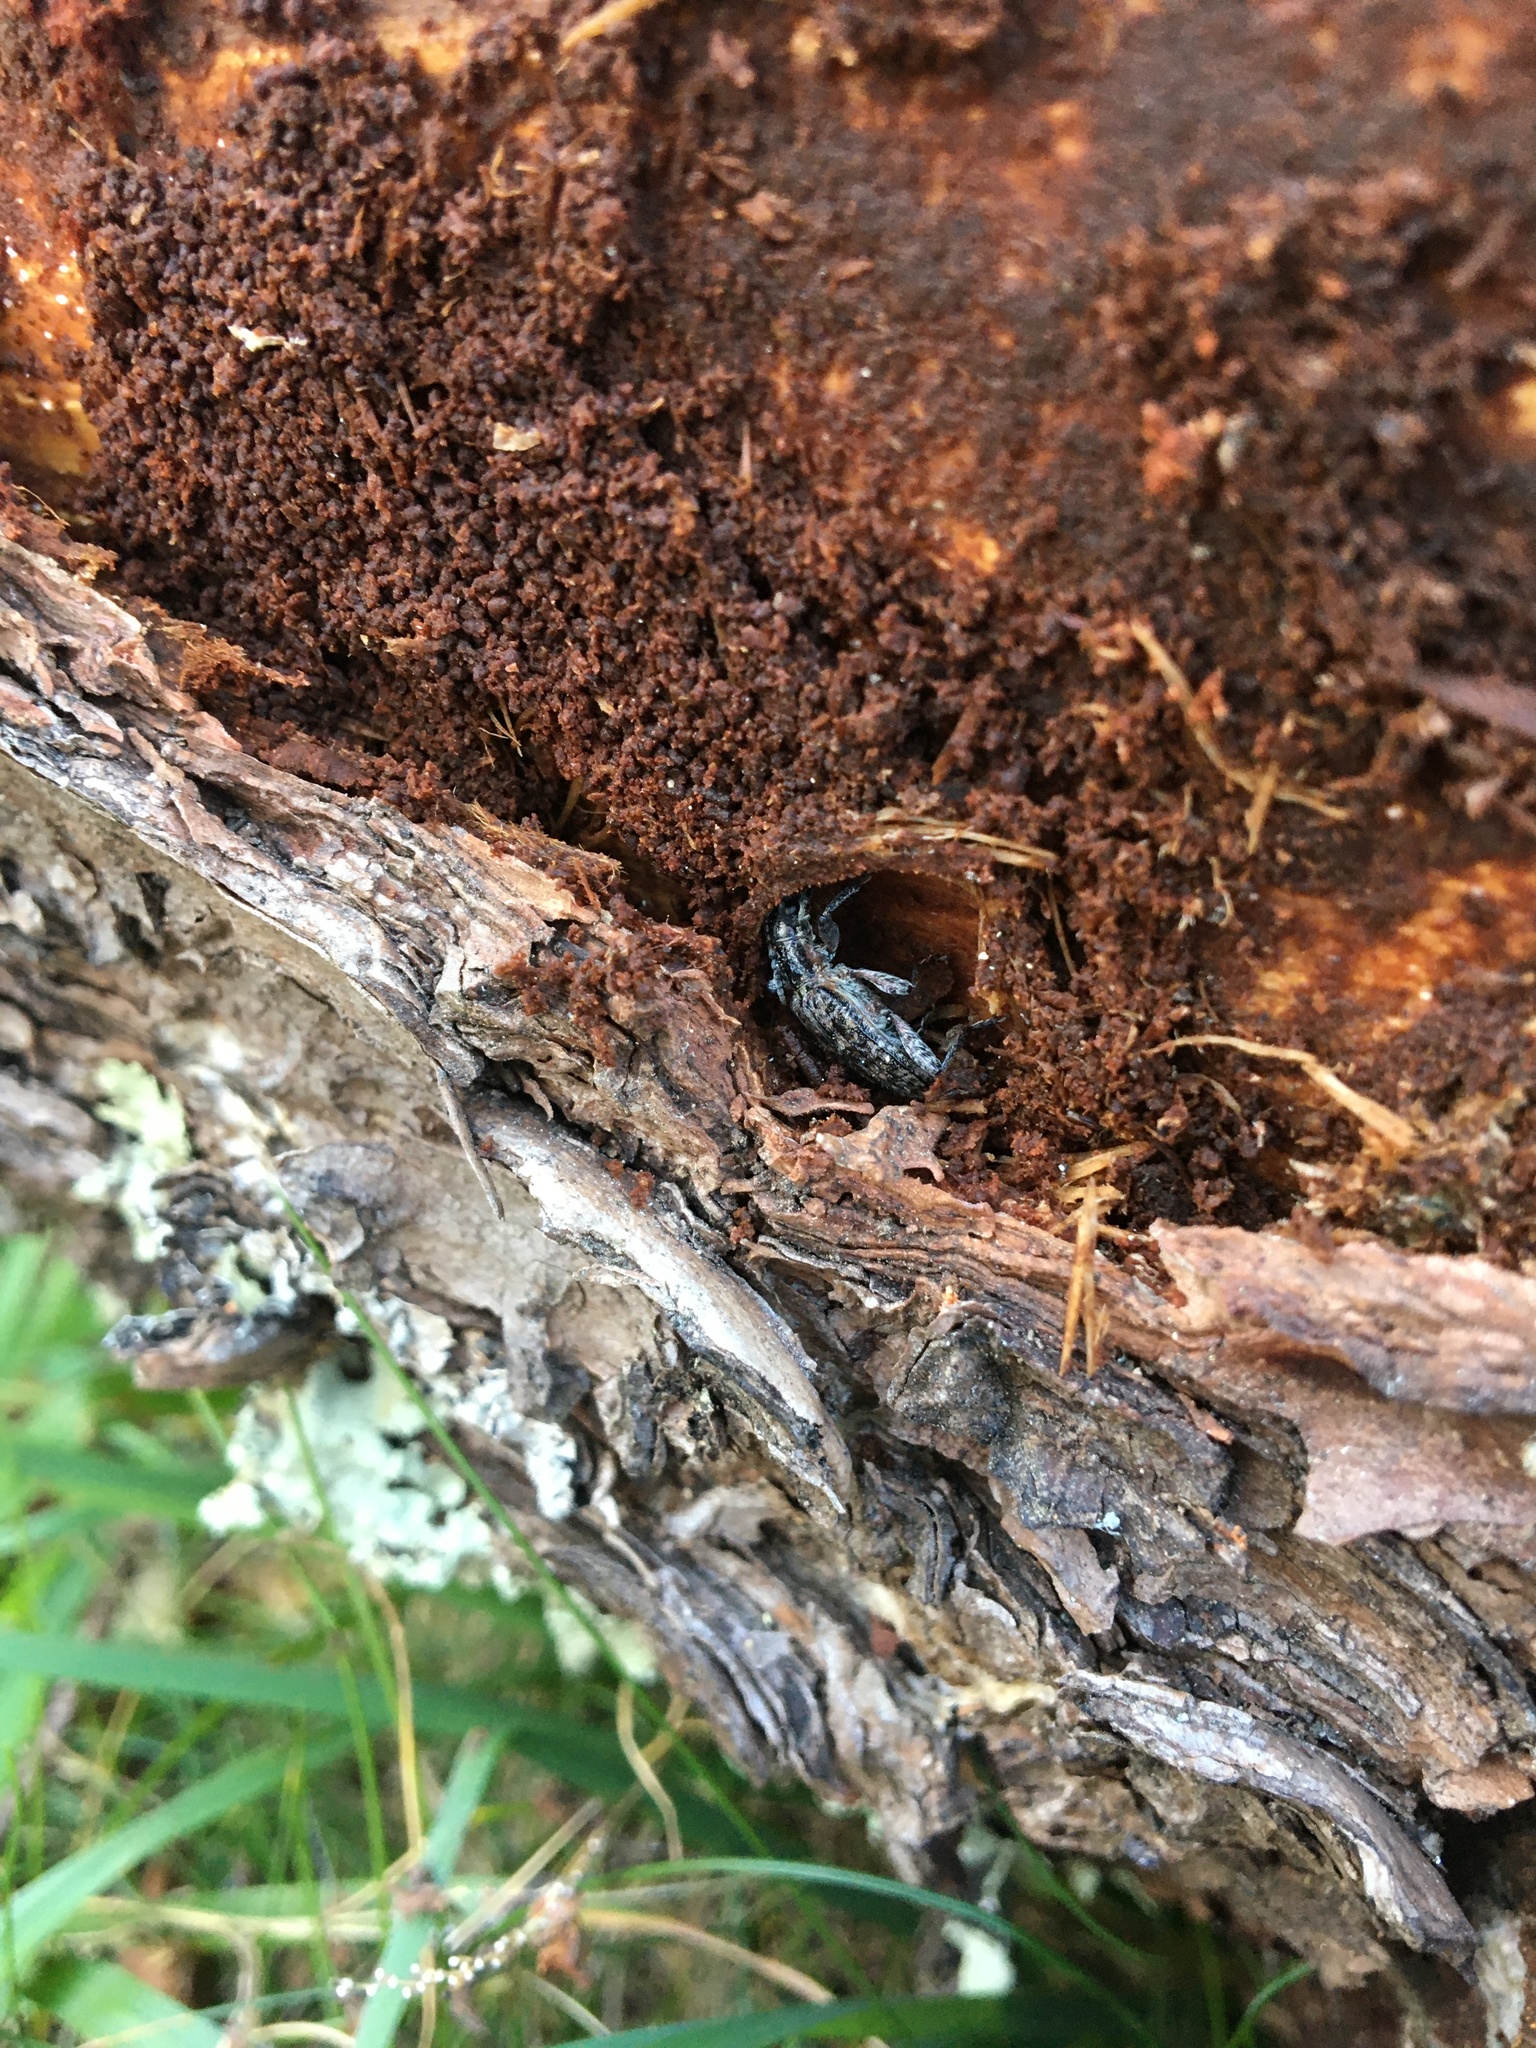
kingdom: Animalia
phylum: Arthropoda
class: Insecta
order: Coleoptera
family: Cerambycidae
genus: Rhagium
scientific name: Rhagium inquisitor
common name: Ribbed pine borer
